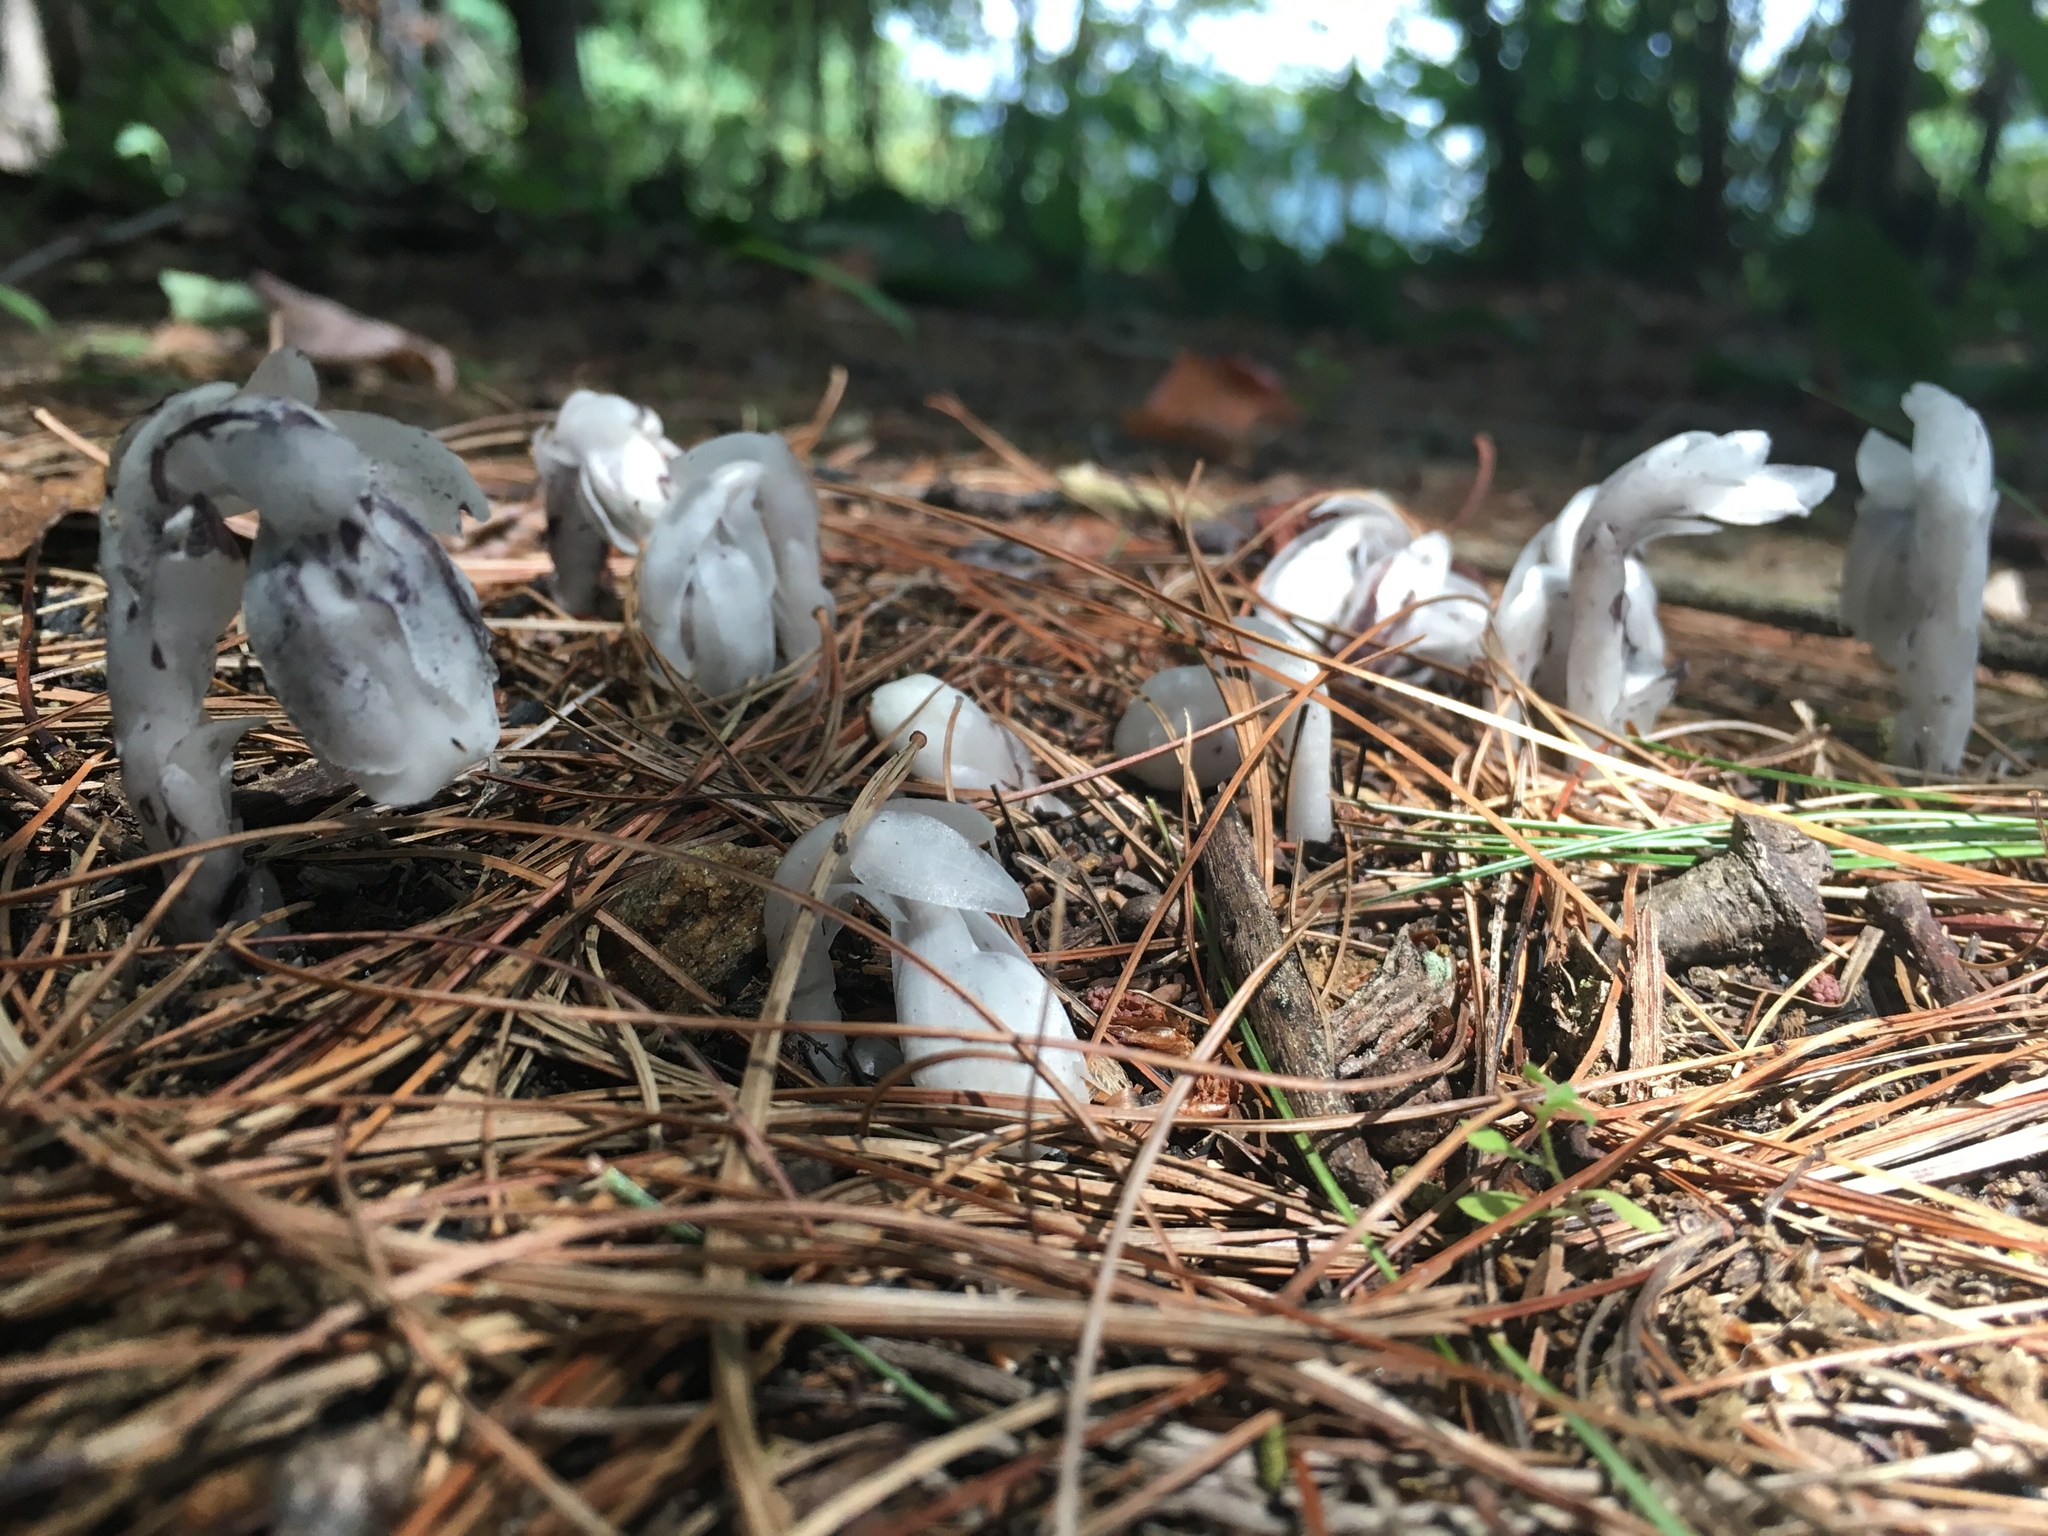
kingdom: Plantae
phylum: Tracheophyta
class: Magnoliopsida
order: Ericales
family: Ericaceae
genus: Monotropa
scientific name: Monotropa uniflora
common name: Convulsion root
